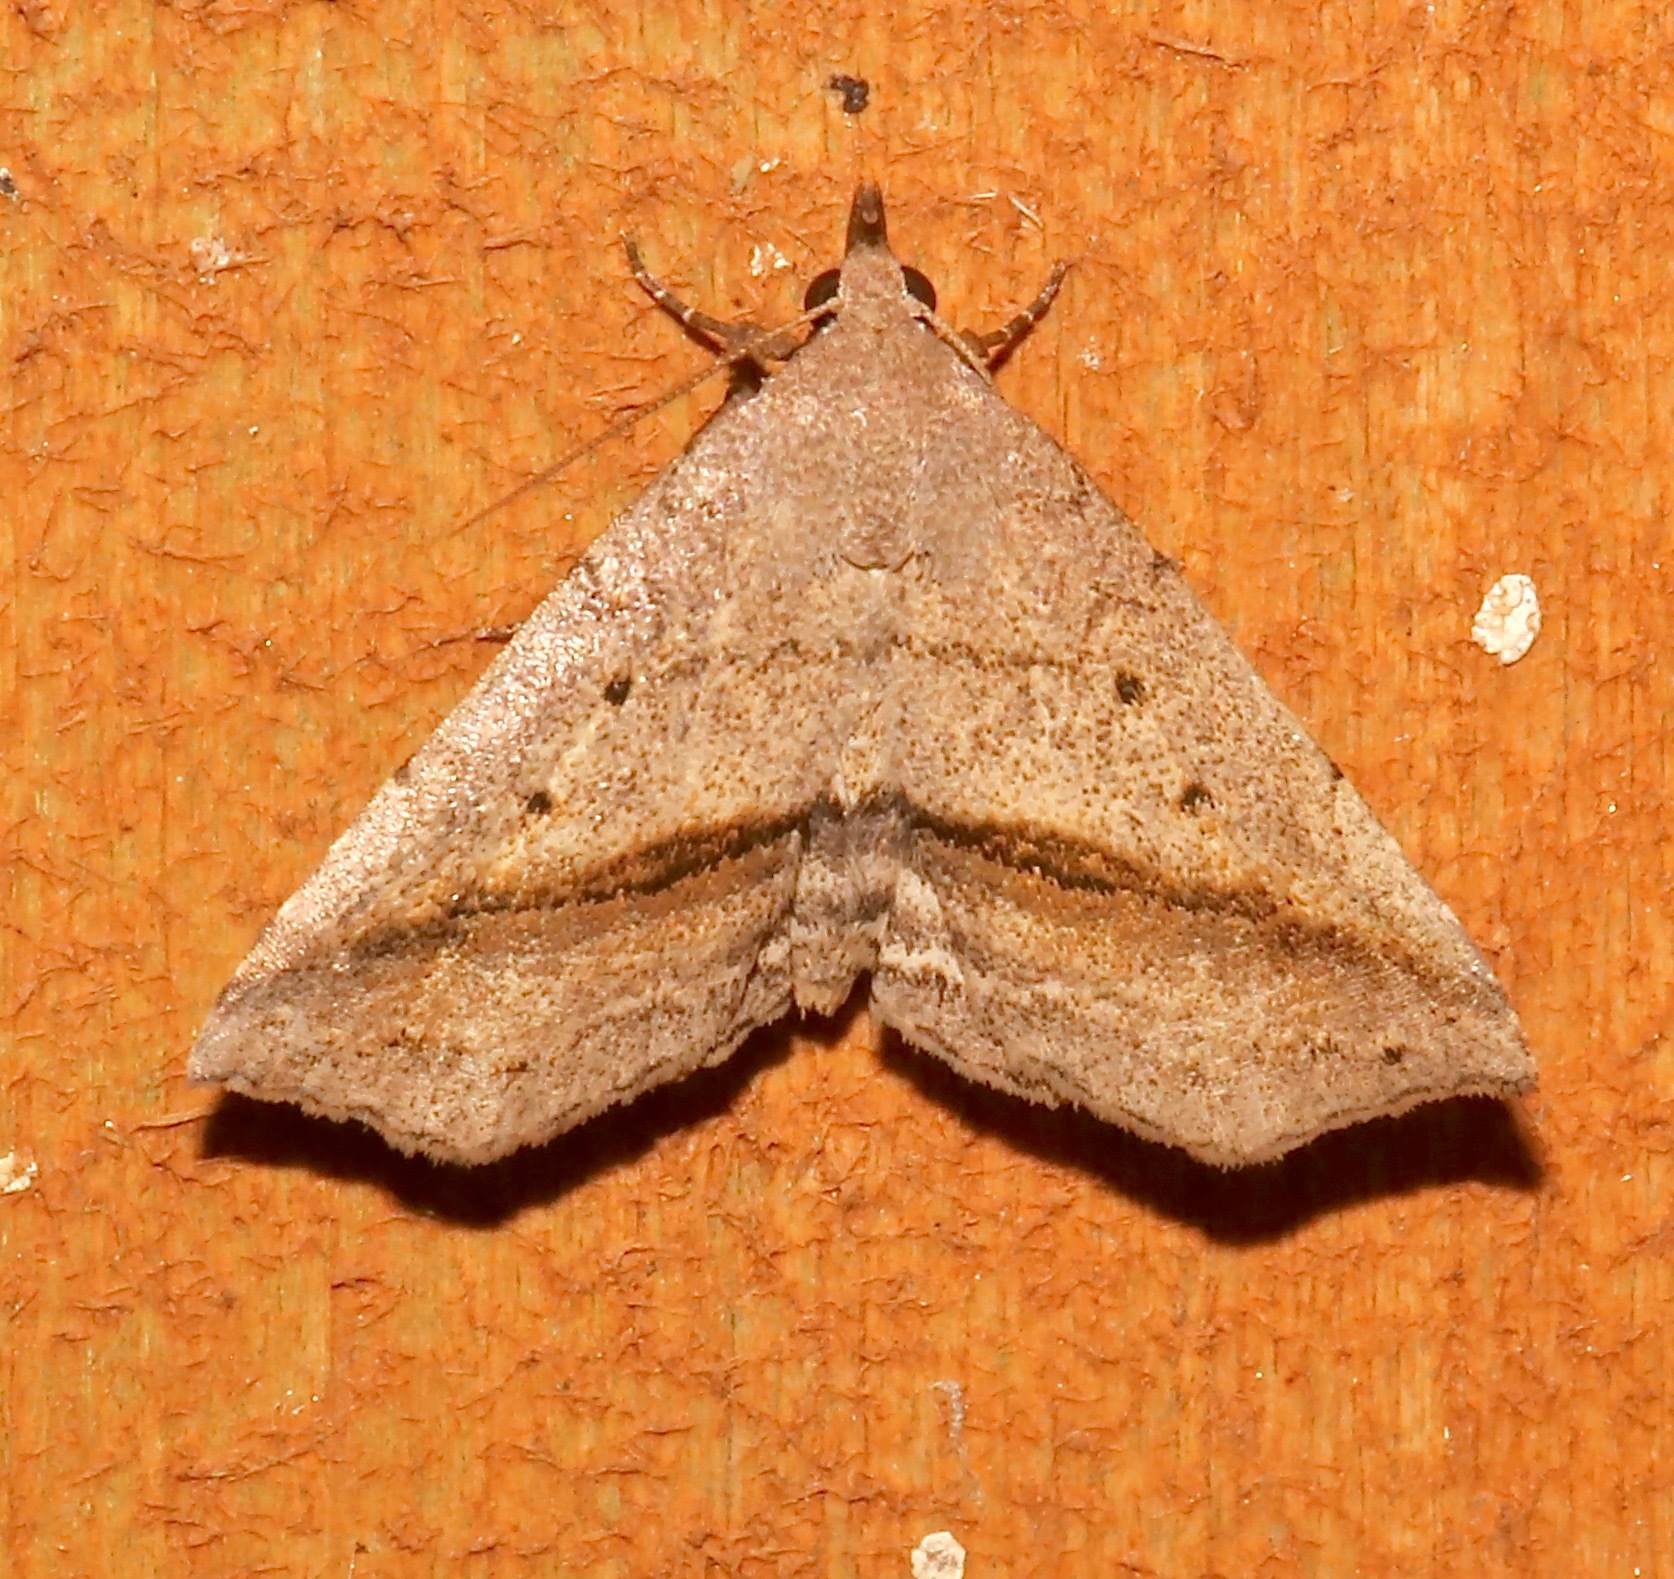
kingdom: Animalia
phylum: Arthropoda
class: Insecta
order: Lepidoptera
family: Erebidae
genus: Spargaloma
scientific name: Spargaloma perditalis
